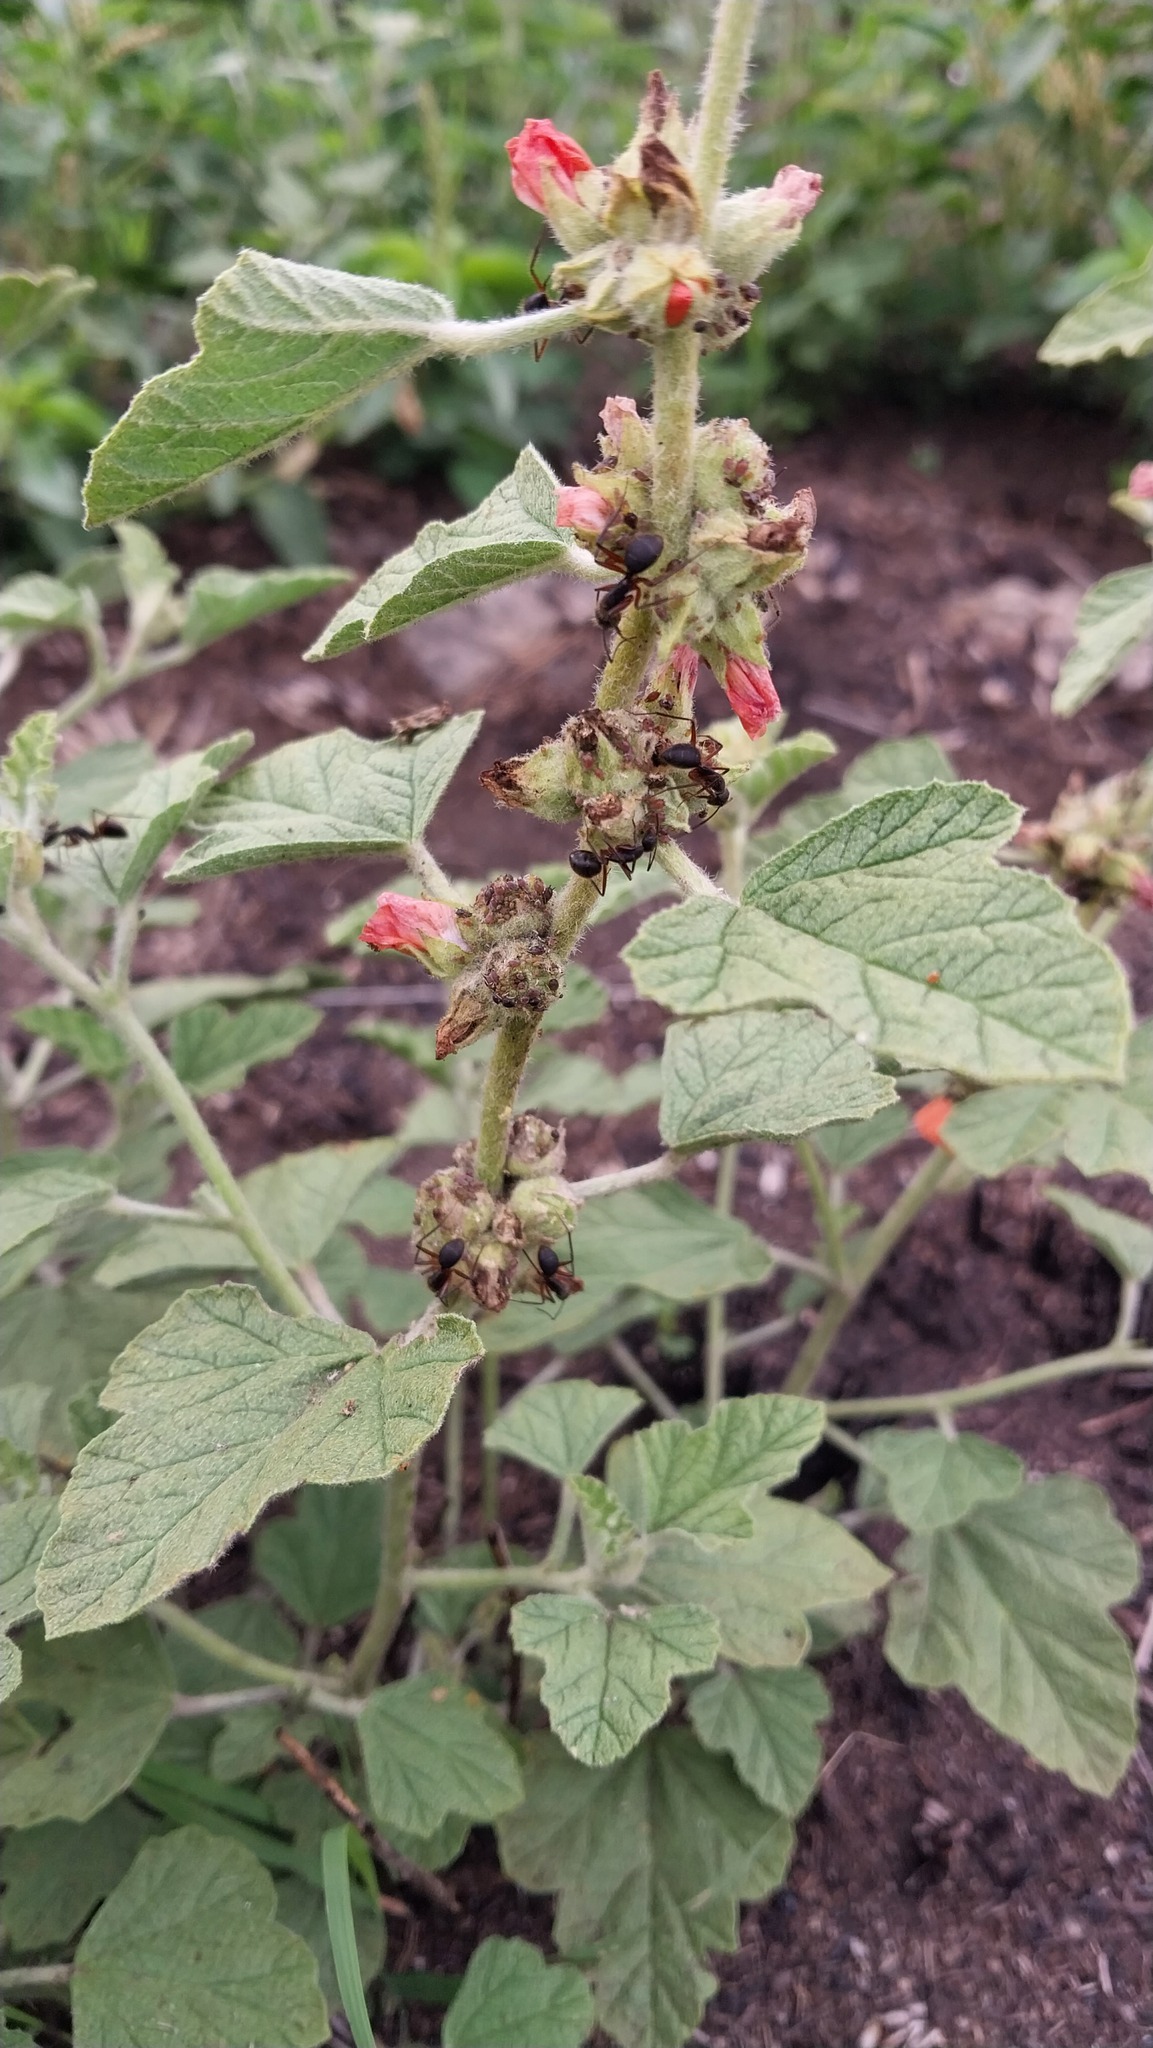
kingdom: Animalia
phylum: Arthropoda
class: Insecta
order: Hymenoptera
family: Formicidae
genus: Camponotus
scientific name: Camponotus rufipes
